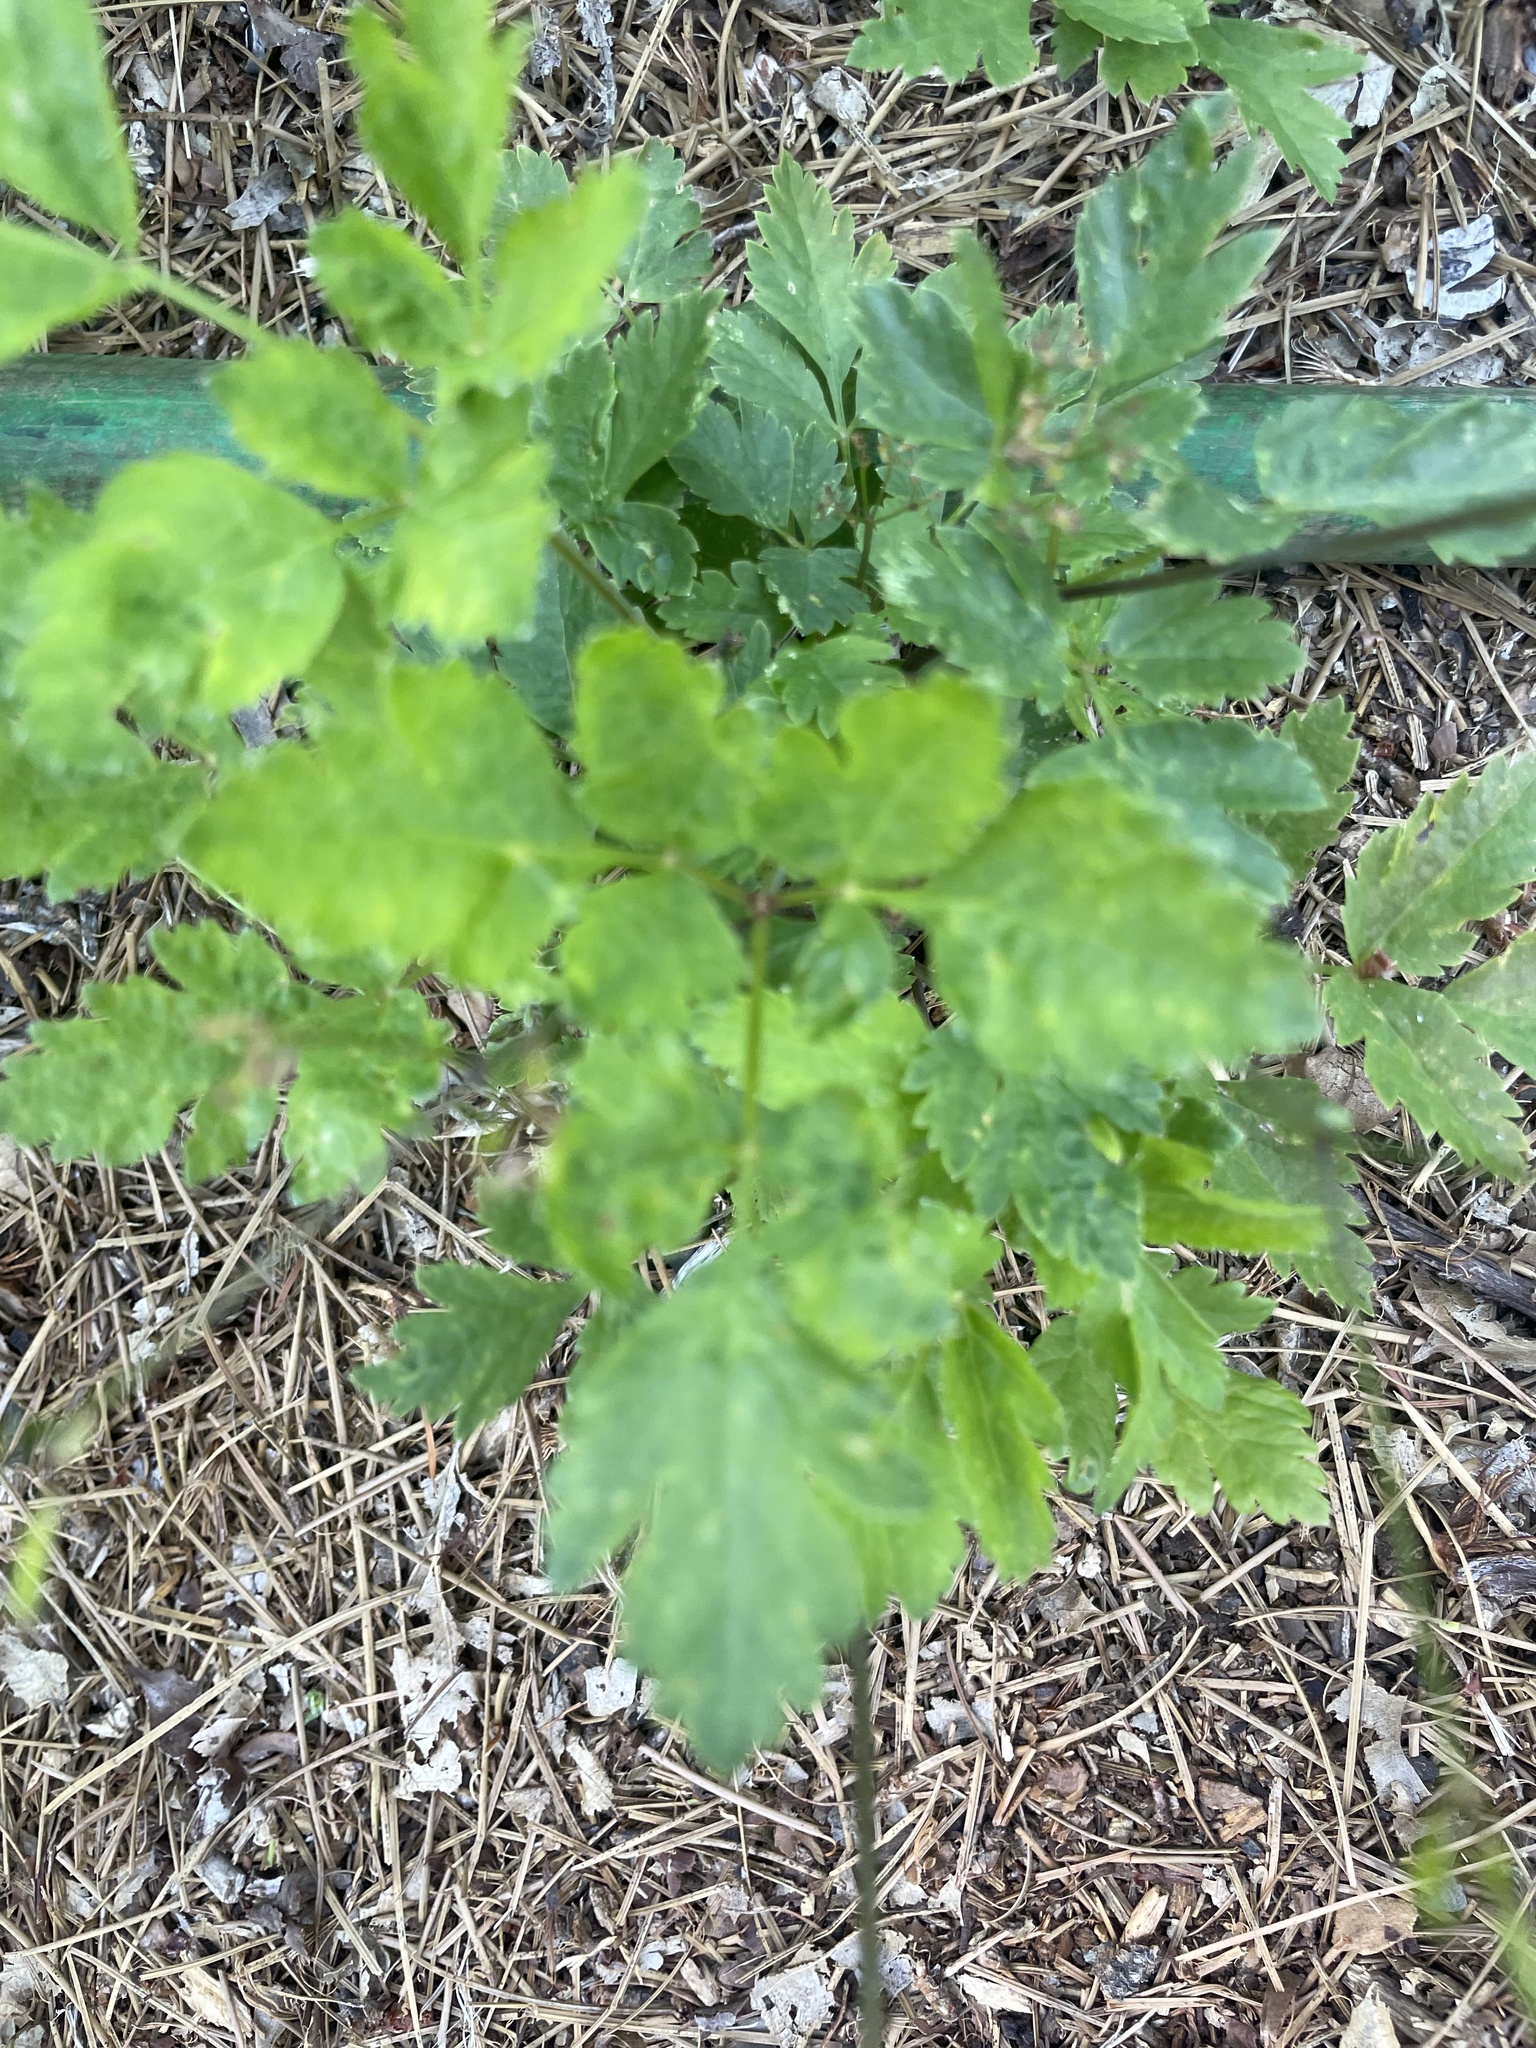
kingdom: Plantae
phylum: Tracheophyta
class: Magnoliopsida
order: Apiales
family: Apiaceae
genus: Osmorhiza
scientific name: Osmorhiza berteroi
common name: Mountain sweet cicely
